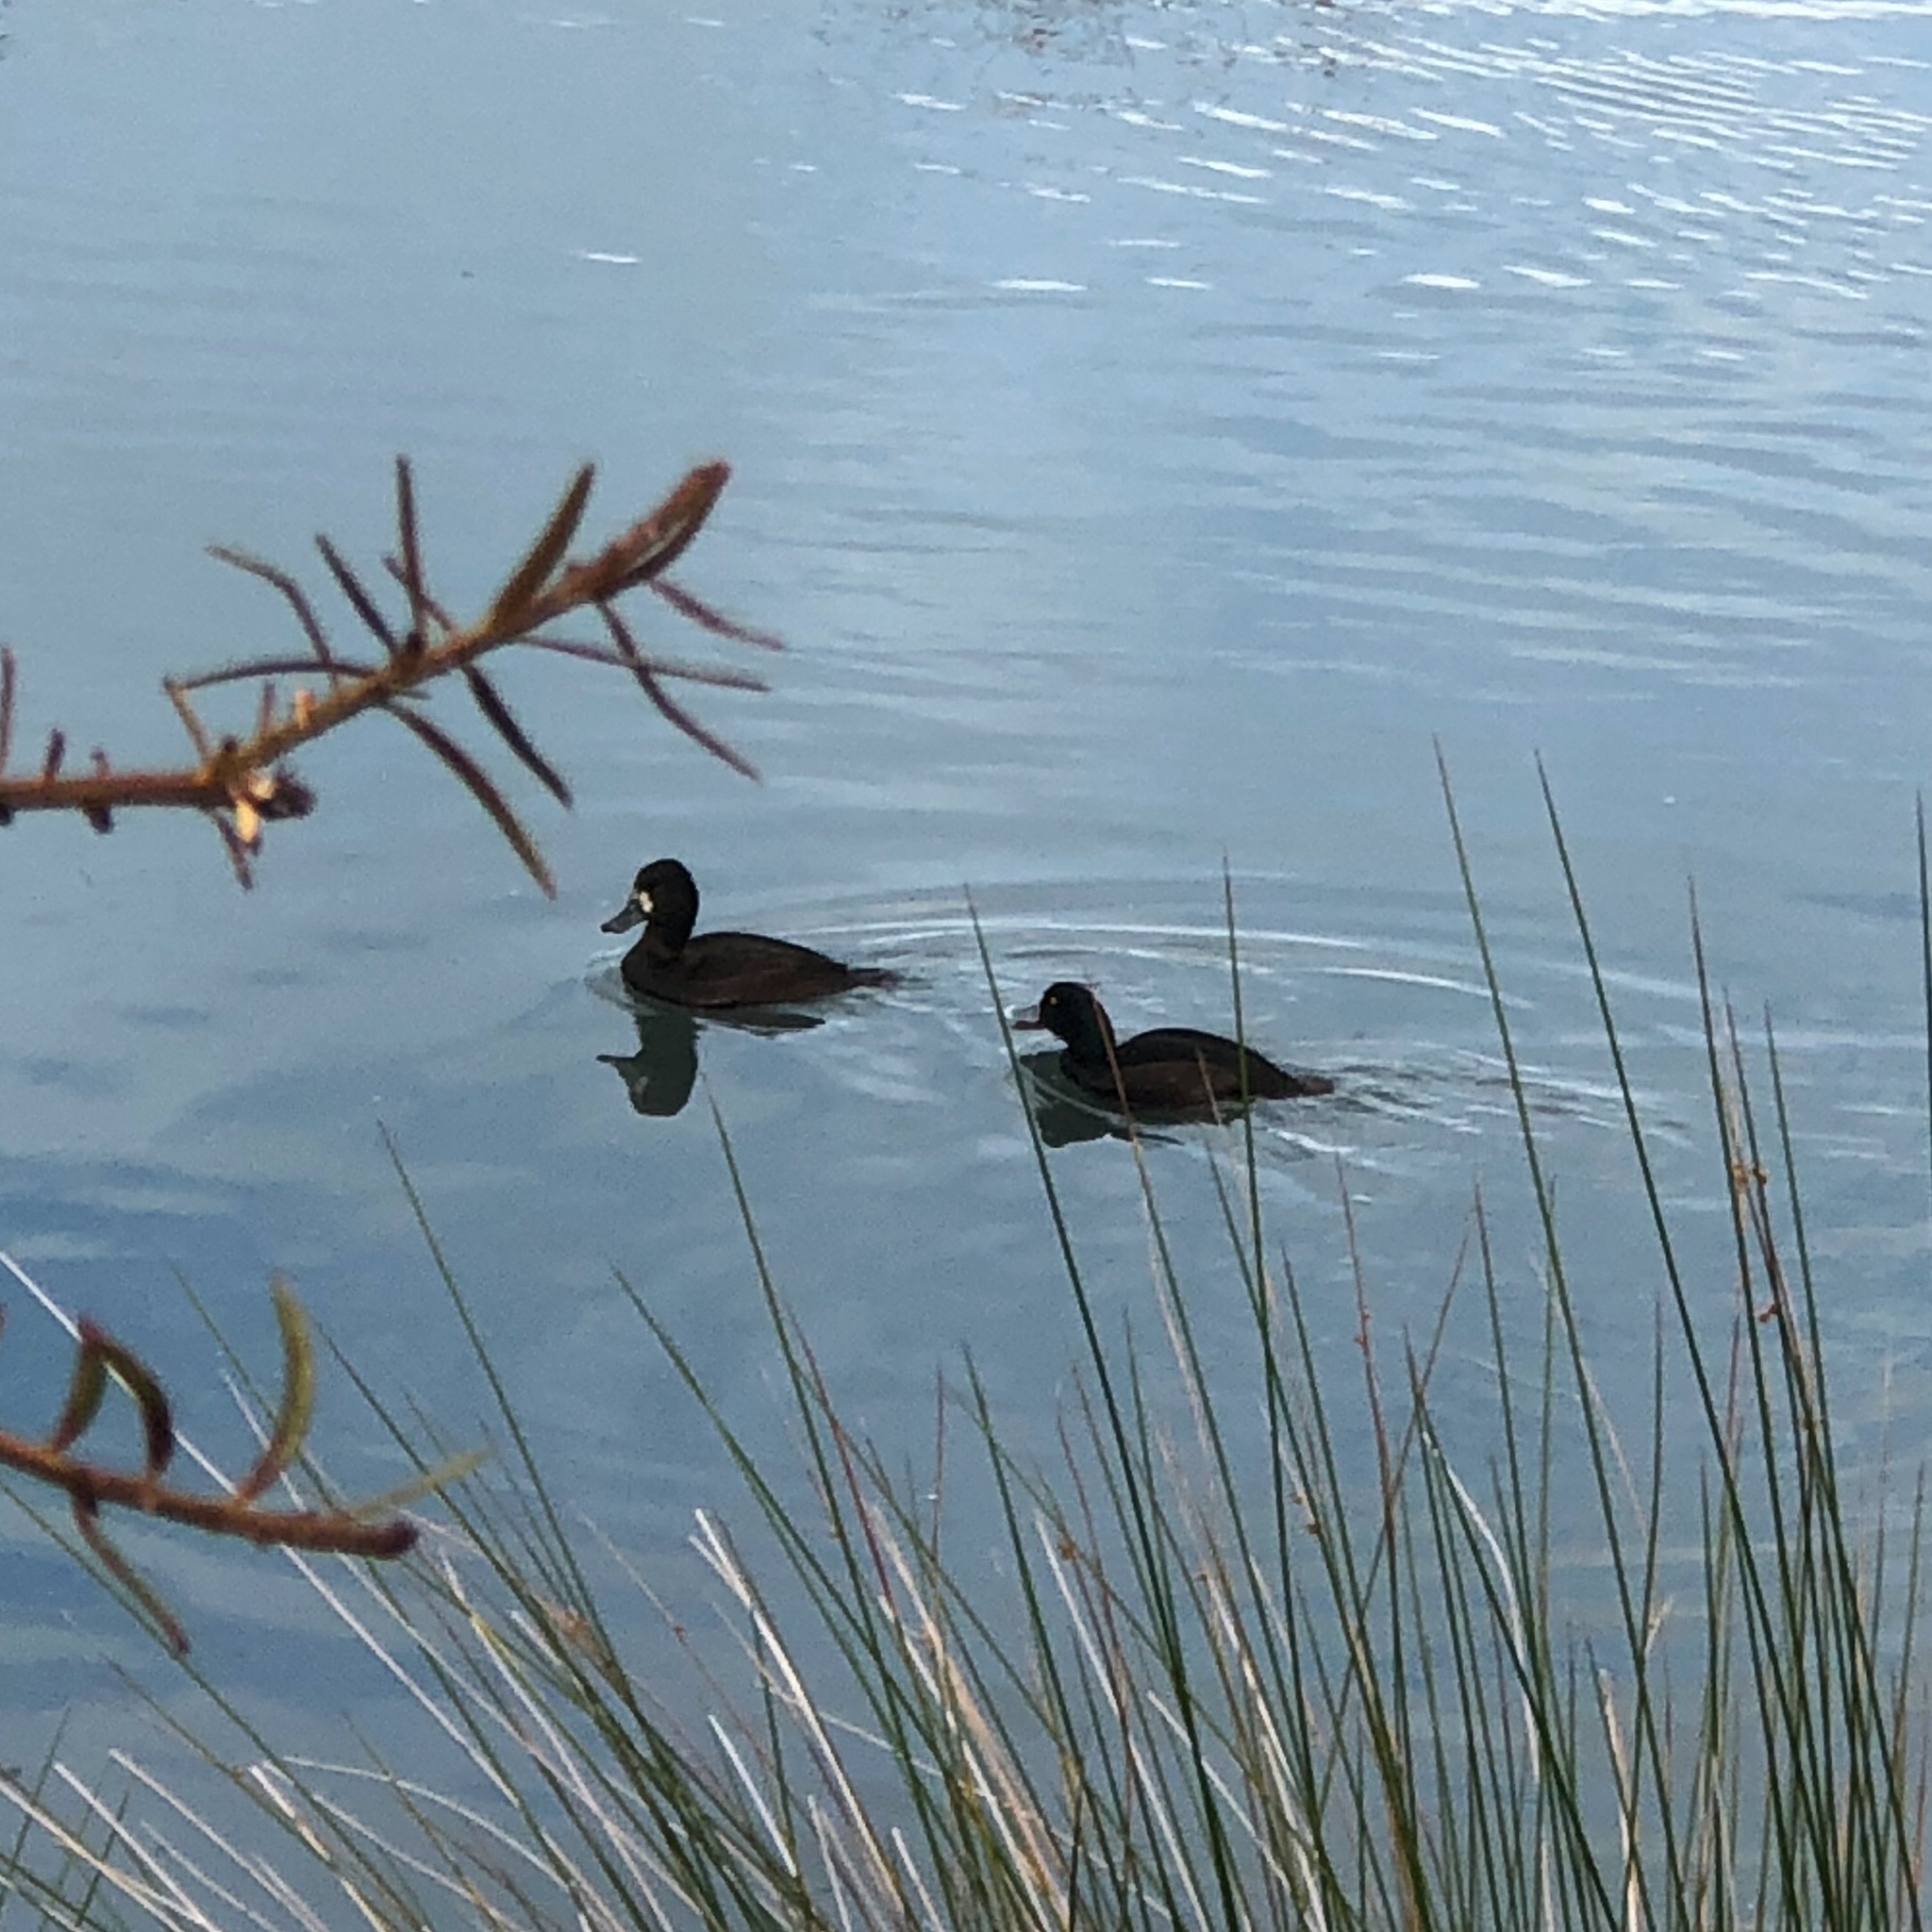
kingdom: Animalia
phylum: Chordata
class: Aves
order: Anseriformes
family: Anatidae
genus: Aythya
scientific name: Aythya novaeseelandiae
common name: New zealand scaup
